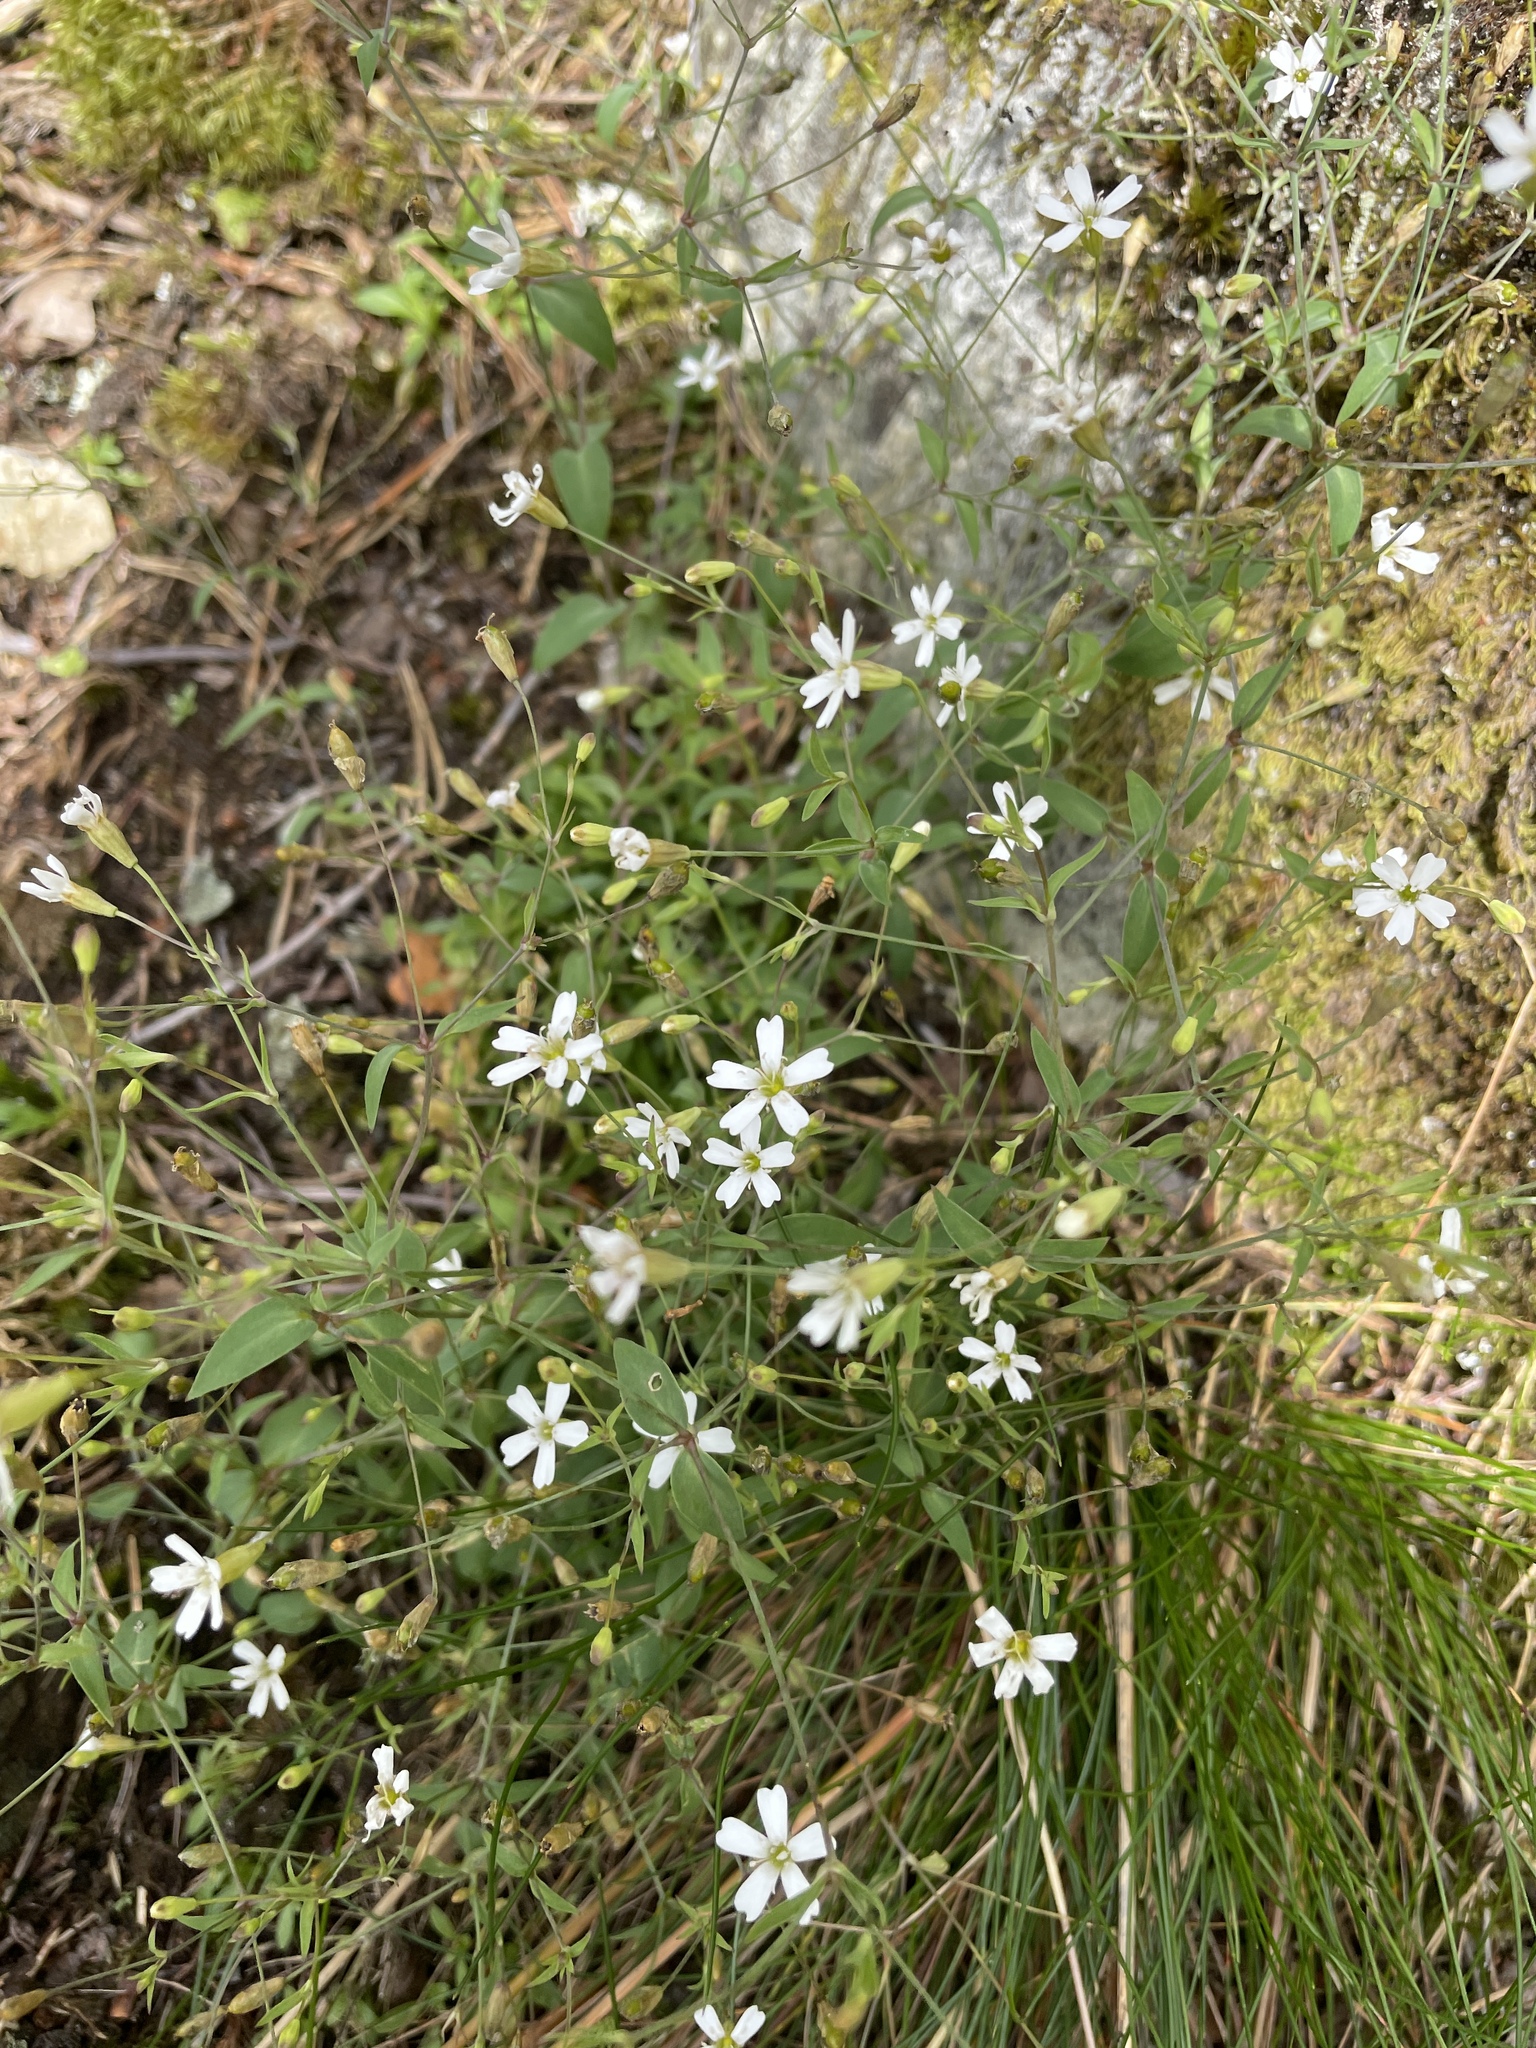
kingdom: Plantae
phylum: Tracheophyta
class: Magnoliopsida
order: Caryophyllales
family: Caryophyllaceae
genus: Atocion
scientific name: Atocion rupestre
